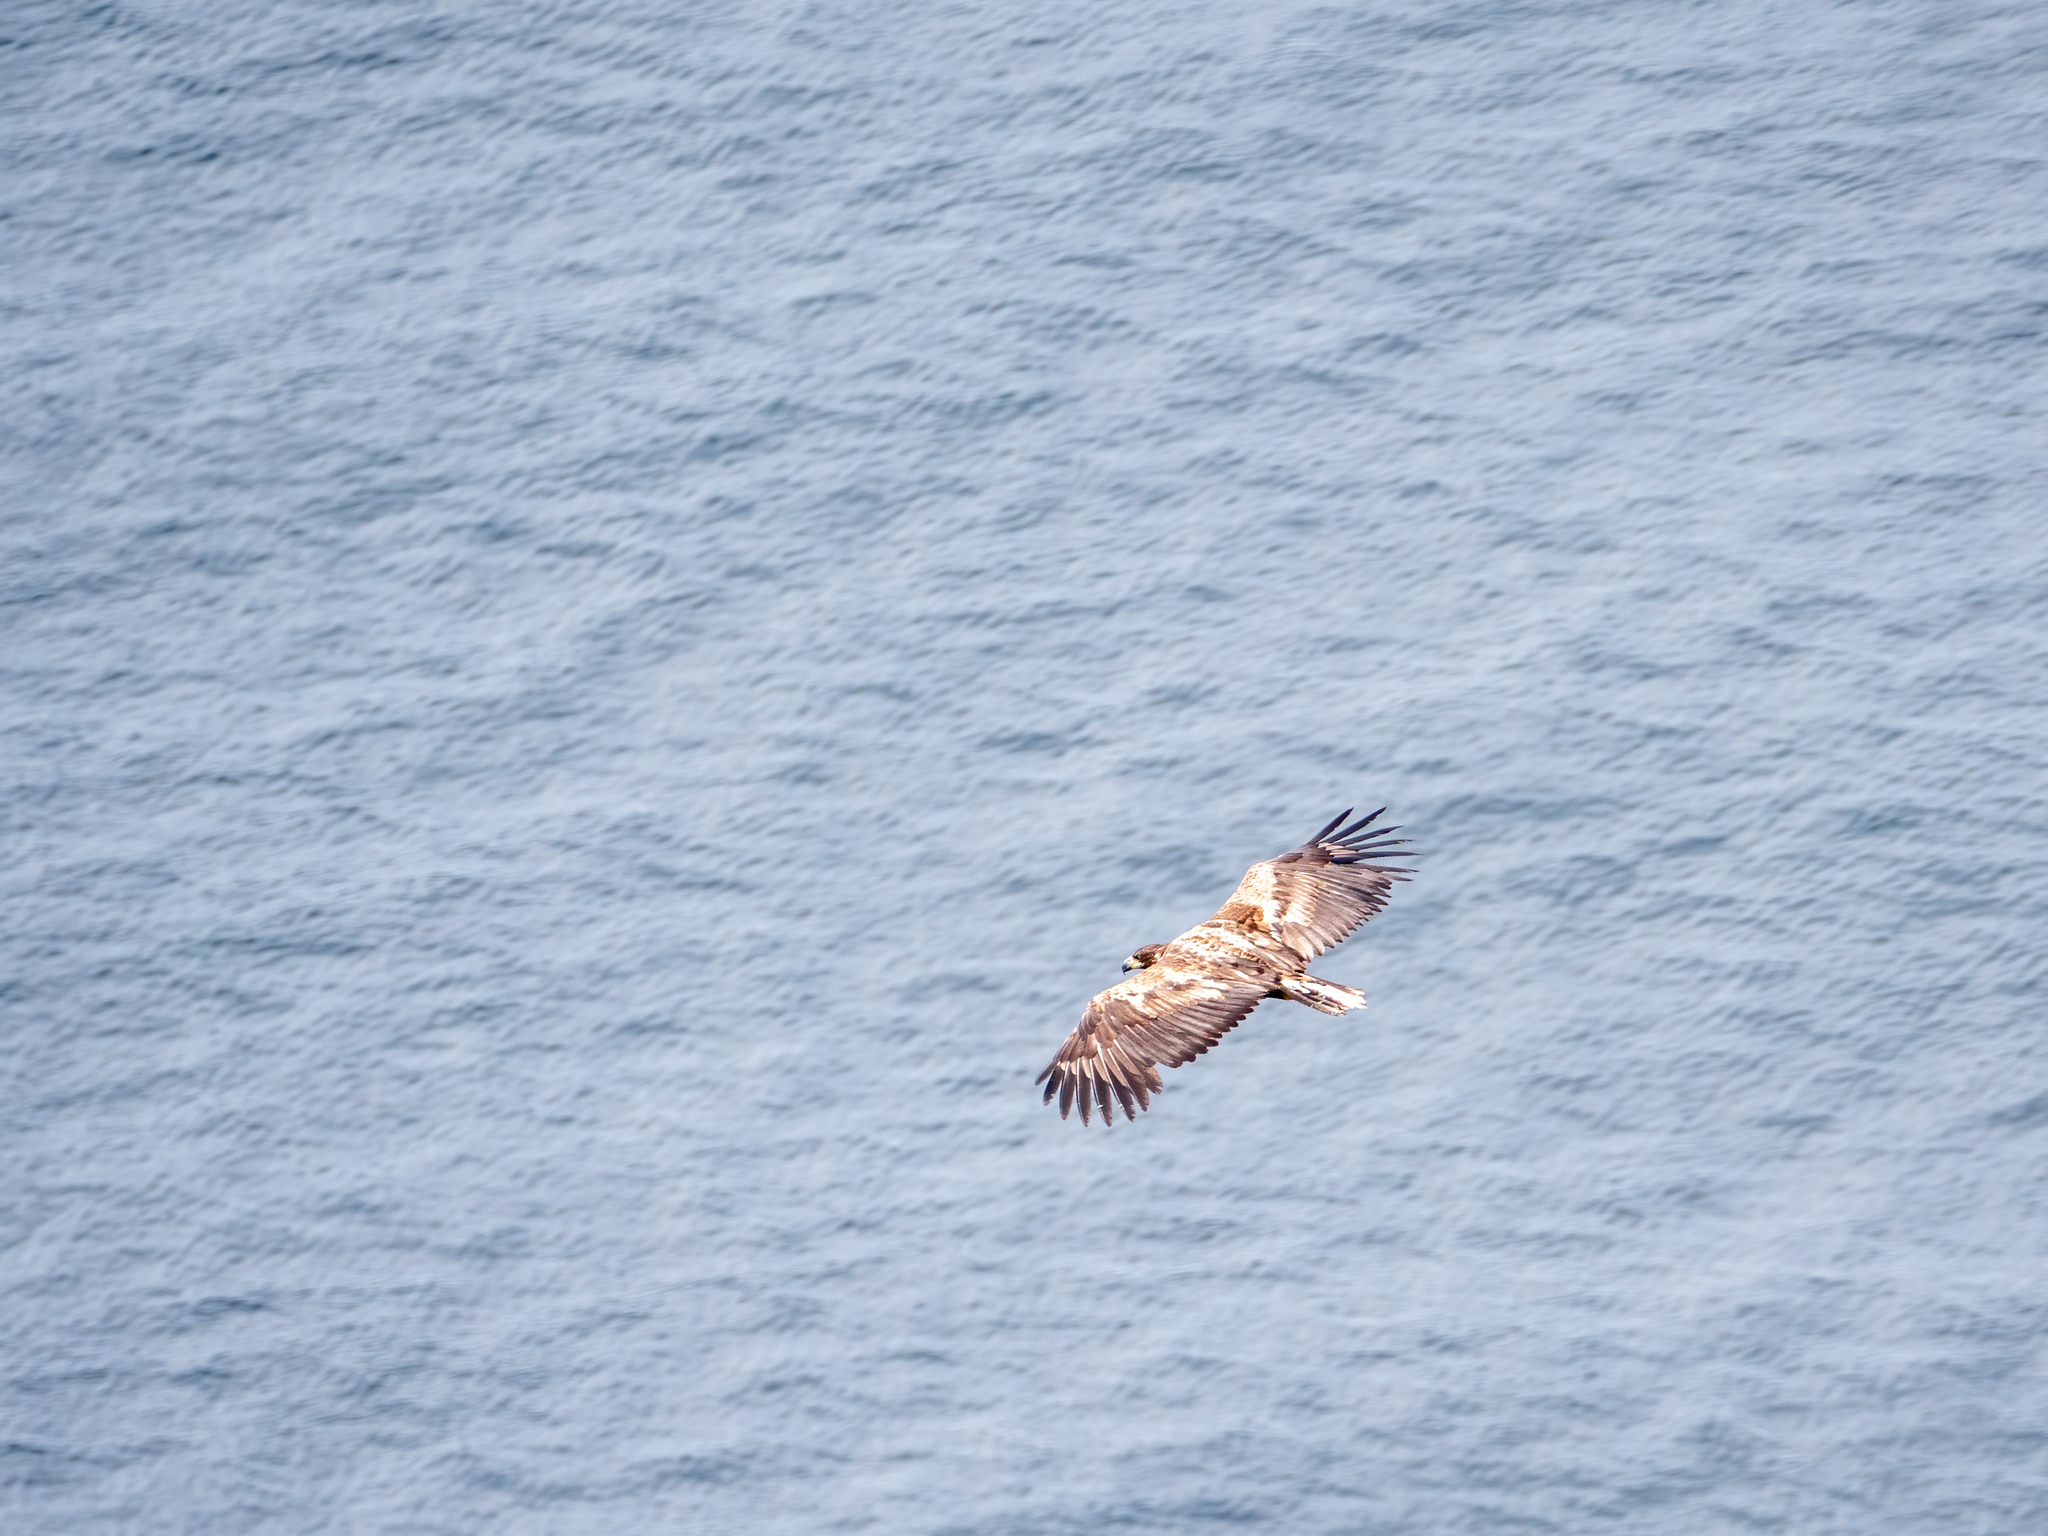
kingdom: Animalia
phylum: Chordata
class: Aves
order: Accipitriformes
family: Accipitridae
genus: Haliaeetus
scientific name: Haliaeetus albicilla
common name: White-tailed eagle
